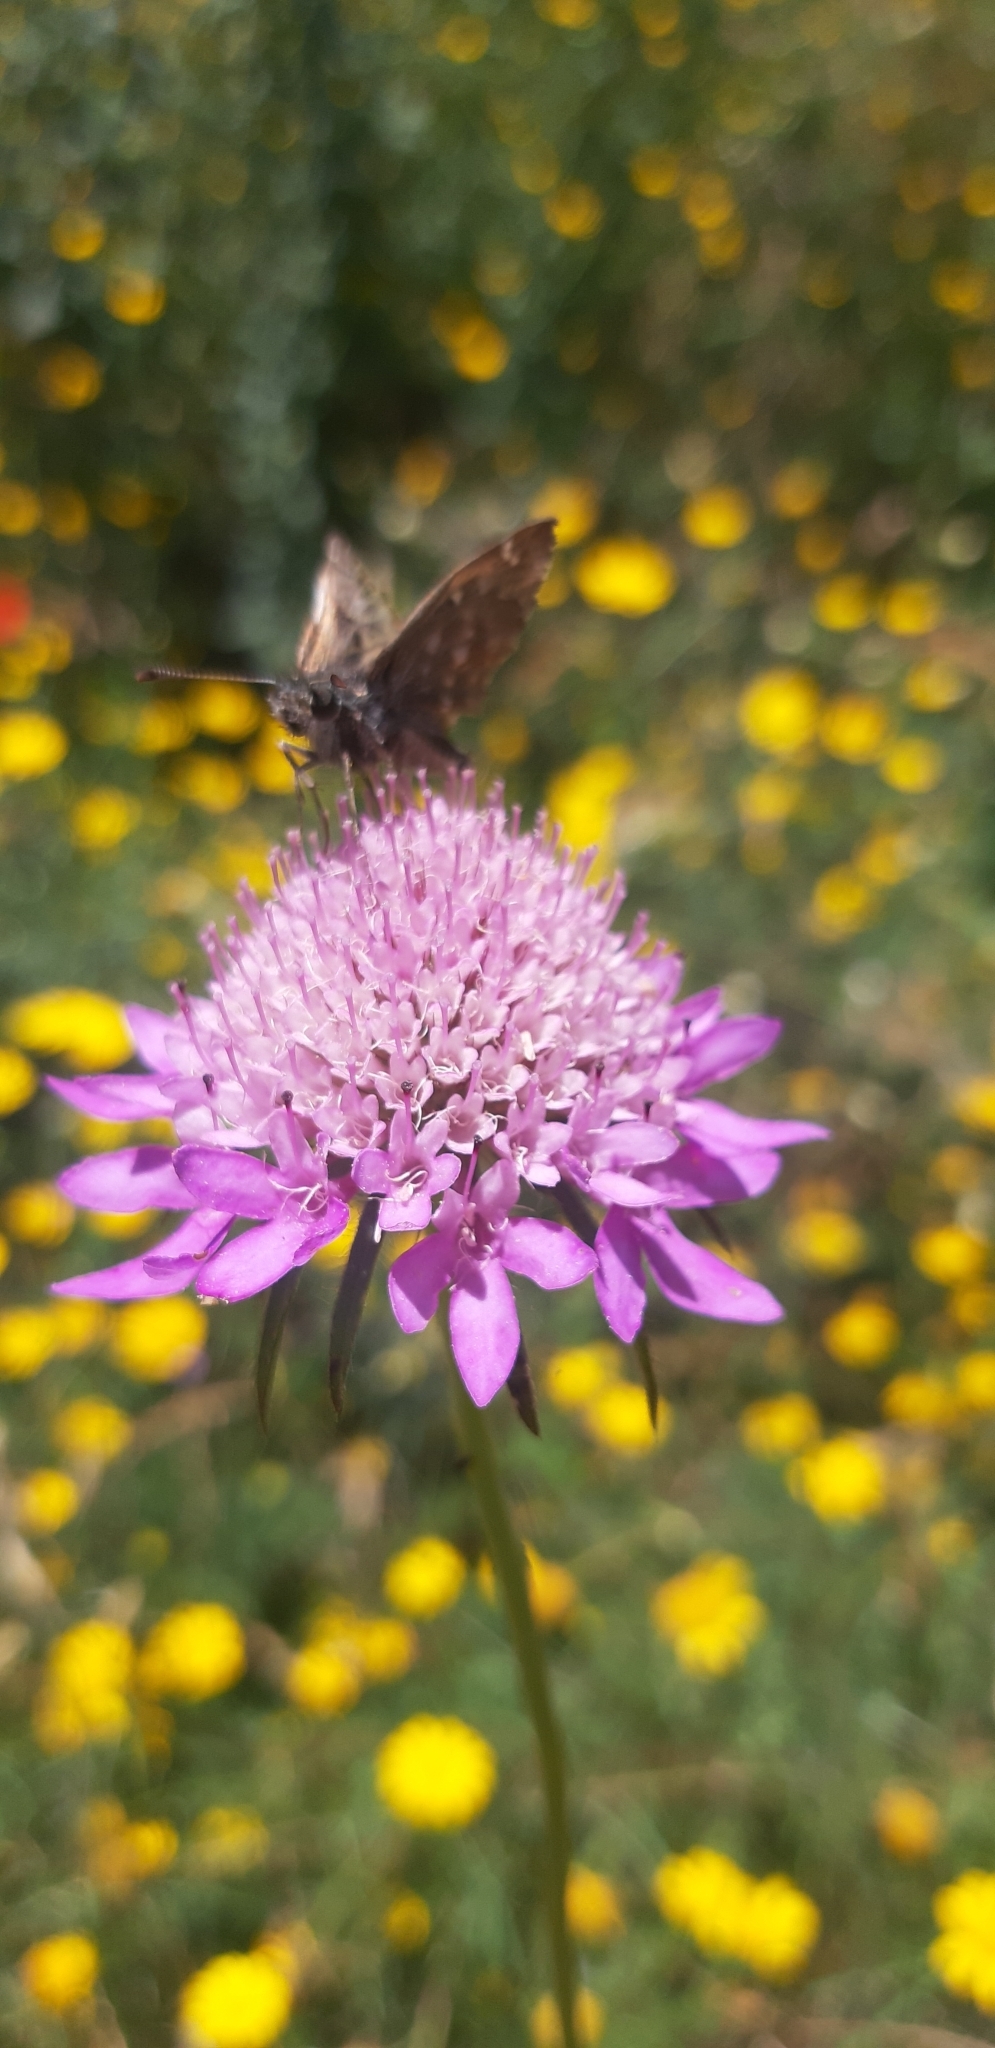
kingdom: Animalia
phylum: Arthropoda
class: Insecta
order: Lepidoptera
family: Hesperiidae
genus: Carcharodus
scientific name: Carcharodus alceae
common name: Mallow skipper
